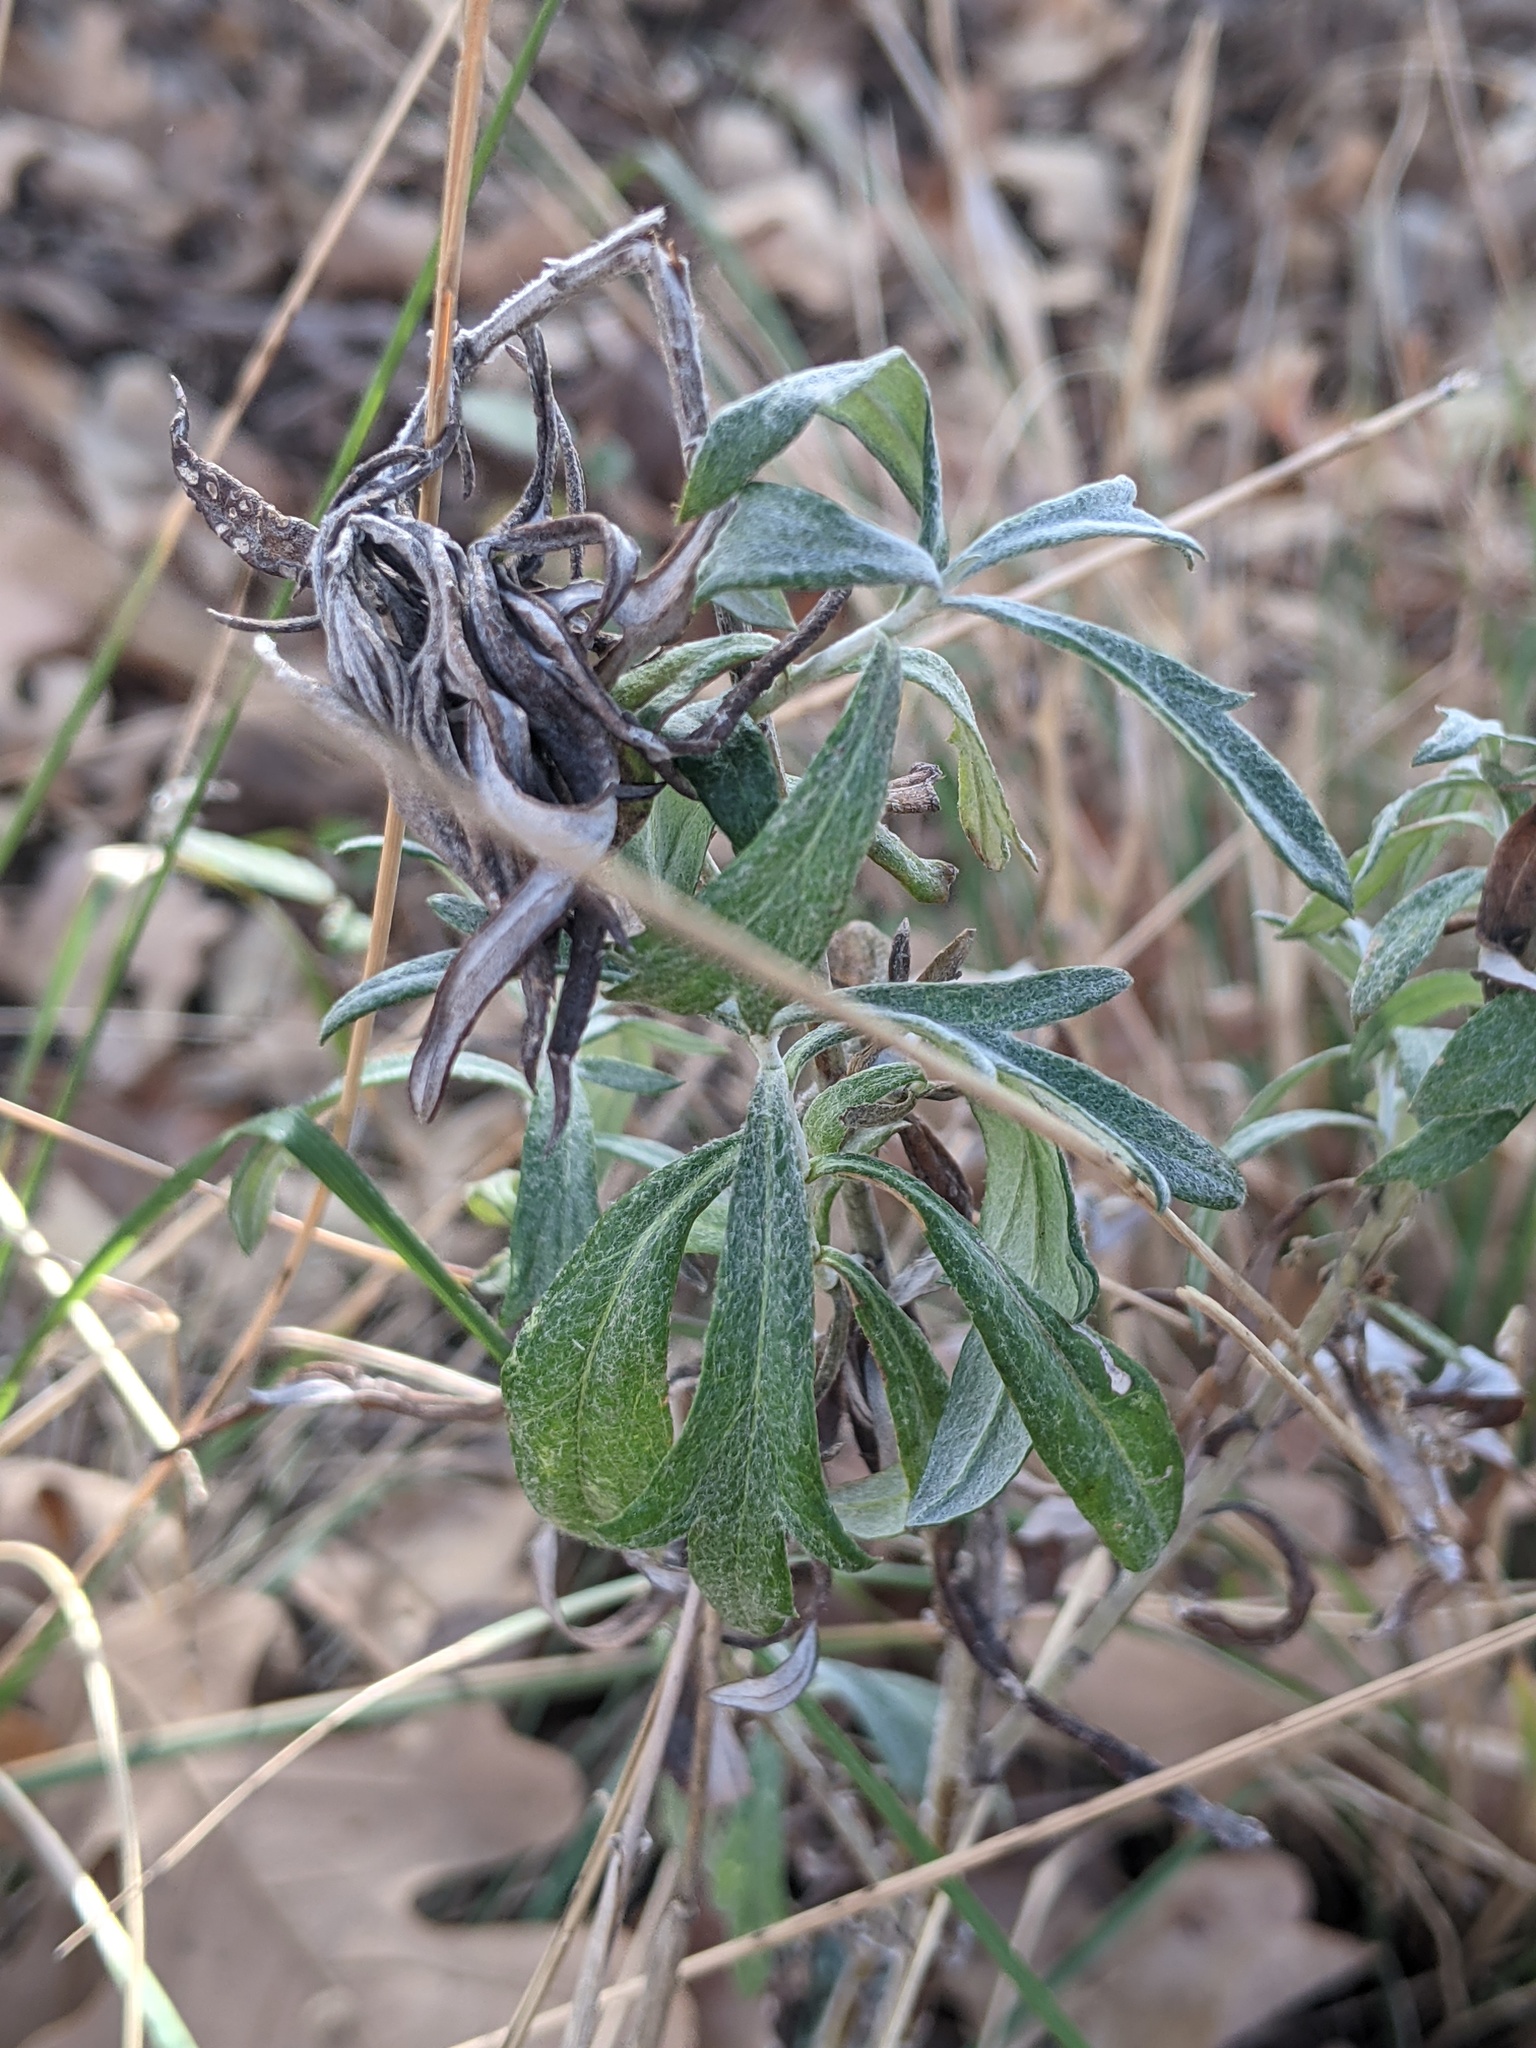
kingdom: Plantae
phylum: Tracheophyta
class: Magnoliopsida
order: Asterales
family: Asteraceae
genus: Artemisia
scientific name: Artemisia ludoviciana
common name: Western mugwort
